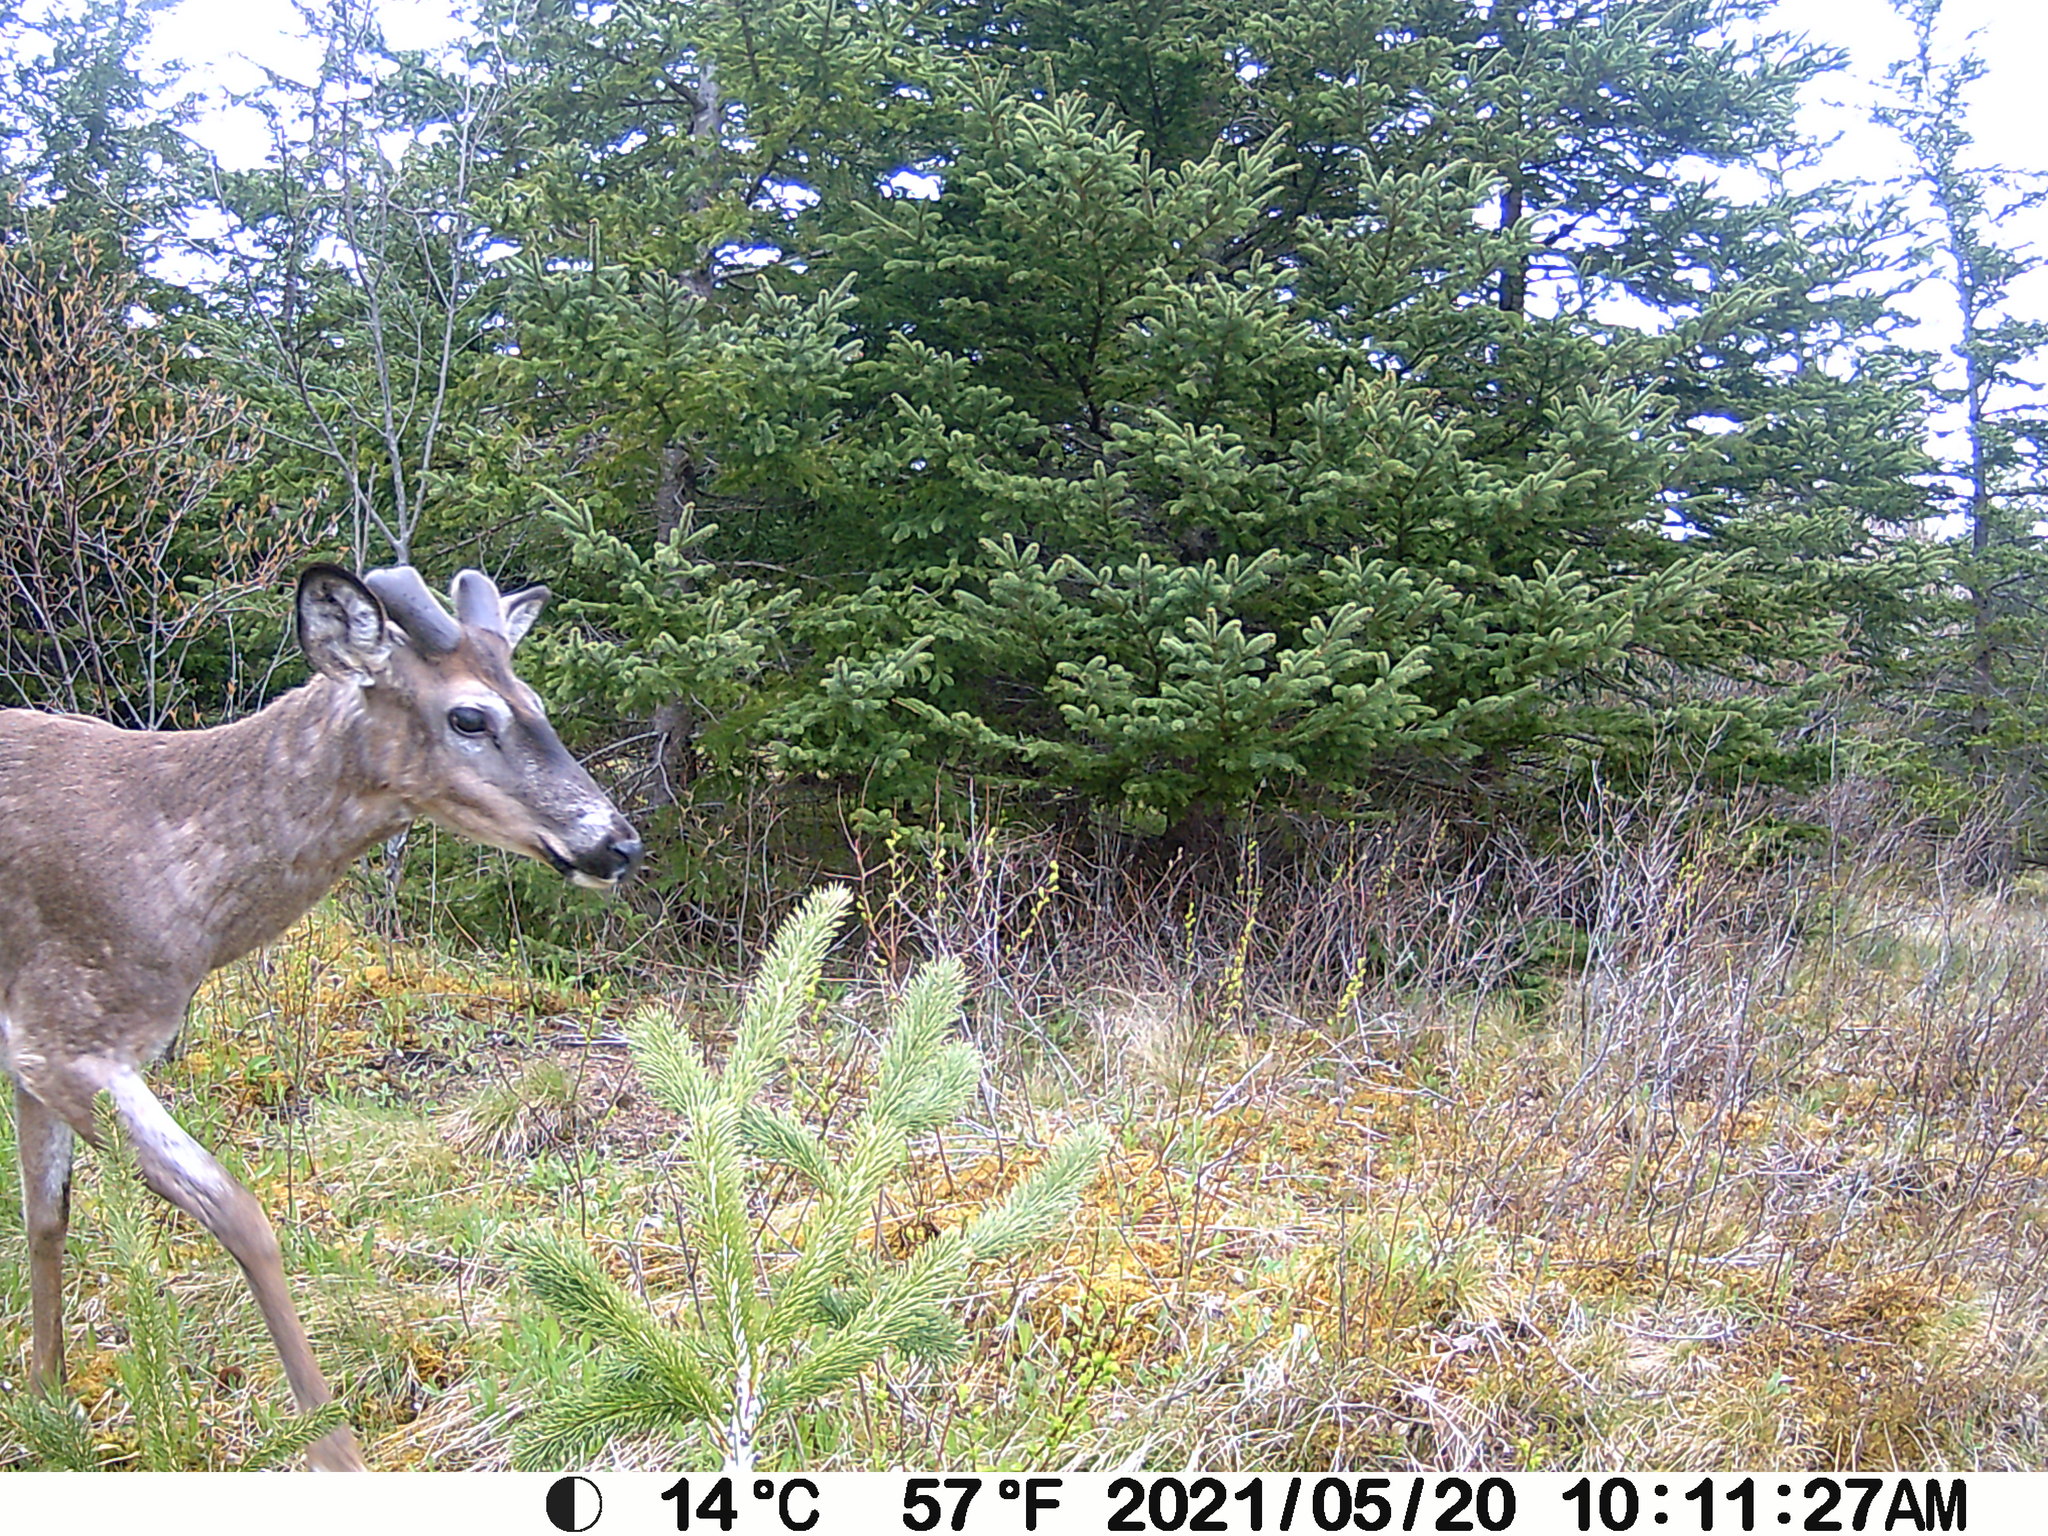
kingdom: Animalia
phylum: Chordata
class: Mammalia
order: Artiodactyla
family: Cervidae
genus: Odocoileus
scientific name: Odocoileus virginianus
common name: White-tailed deer
